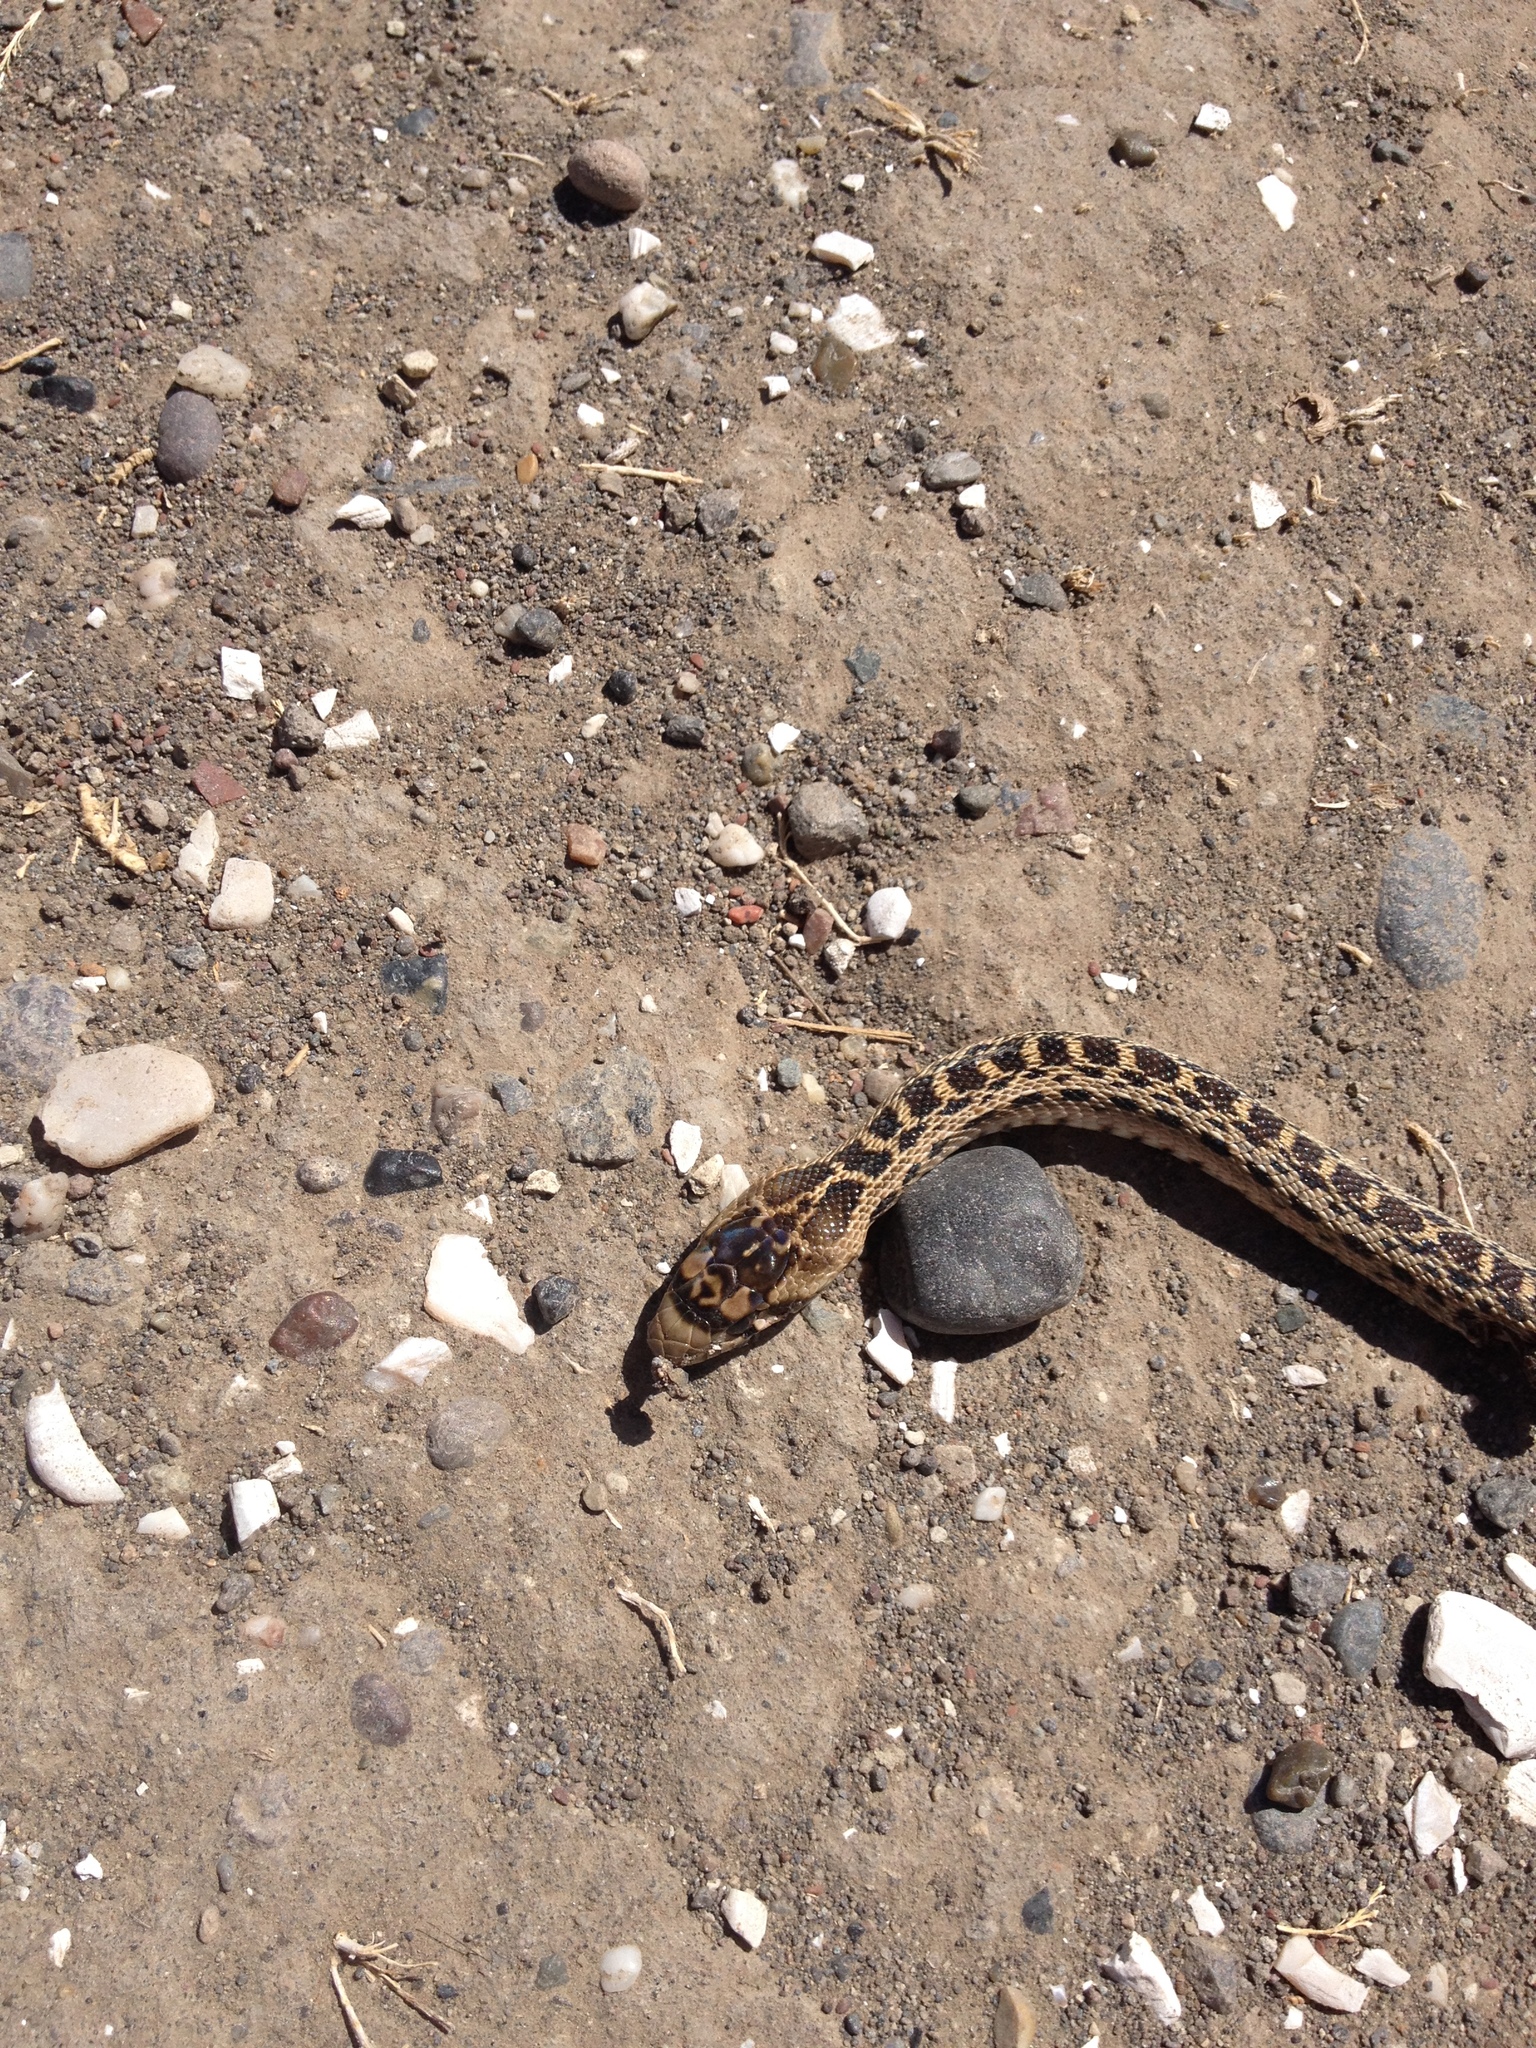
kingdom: Animalia
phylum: Chordata
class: Squamata
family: Colubridae
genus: Pituophis
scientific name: Pituophis catenifer
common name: Gopher snake
